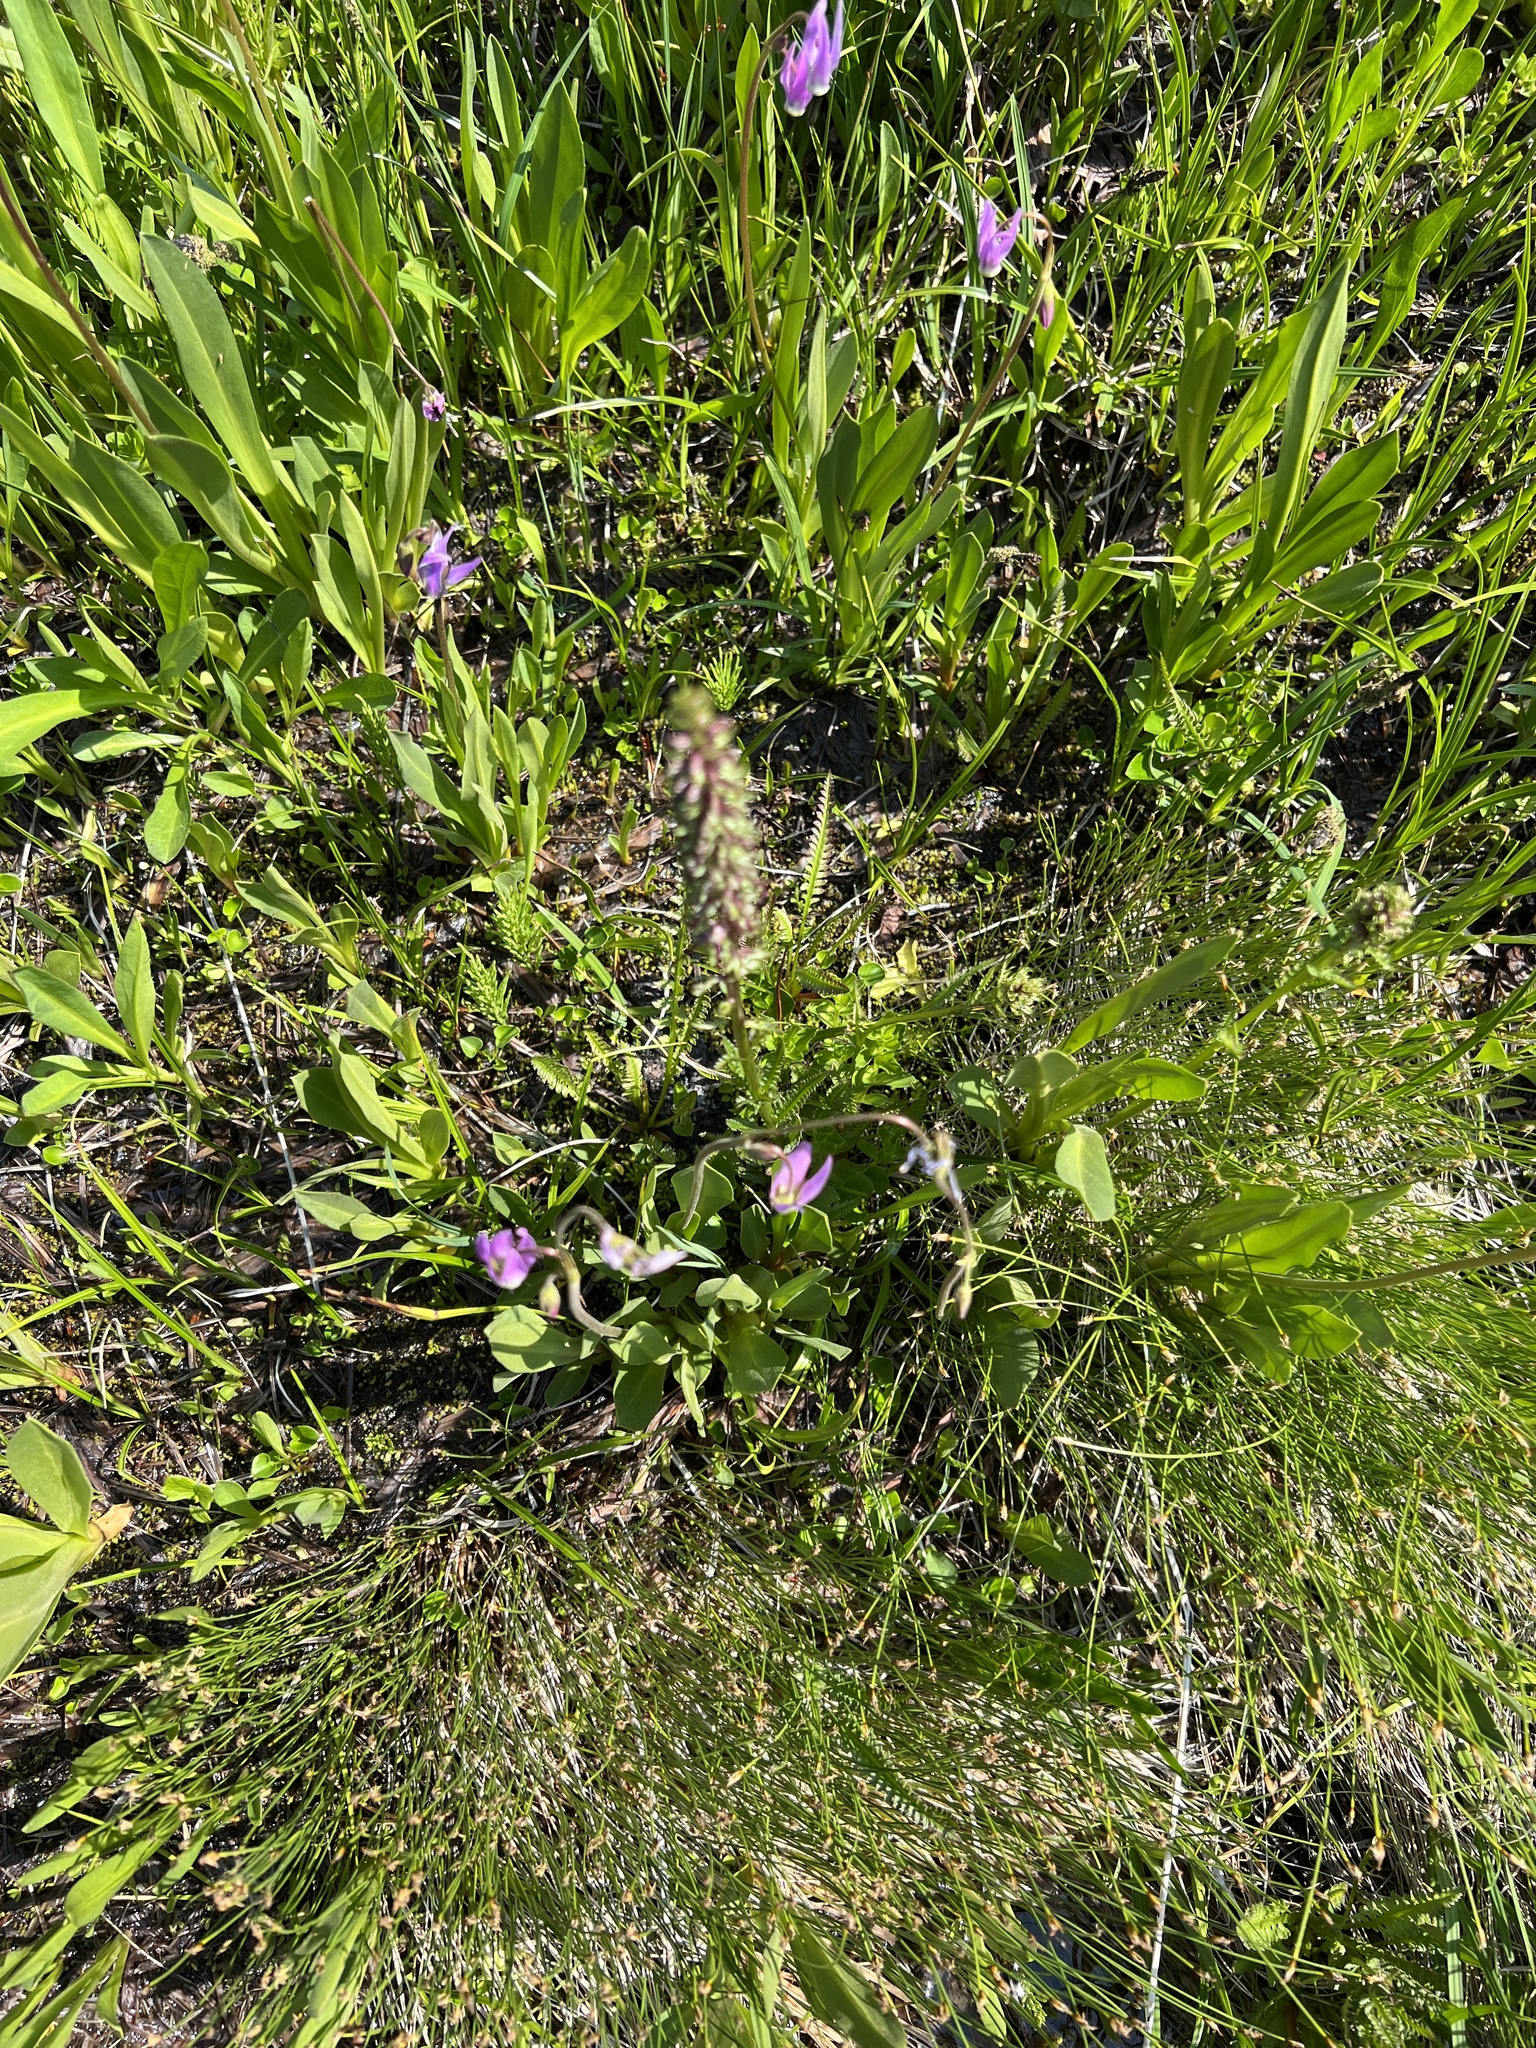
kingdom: Plantae
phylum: Tracheophyta
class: Magnoliopsida
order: Lamiales
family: Orobanchaceae
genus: Pedicularis
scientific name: Pedicularis groenlandica
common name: Elephant's-head
